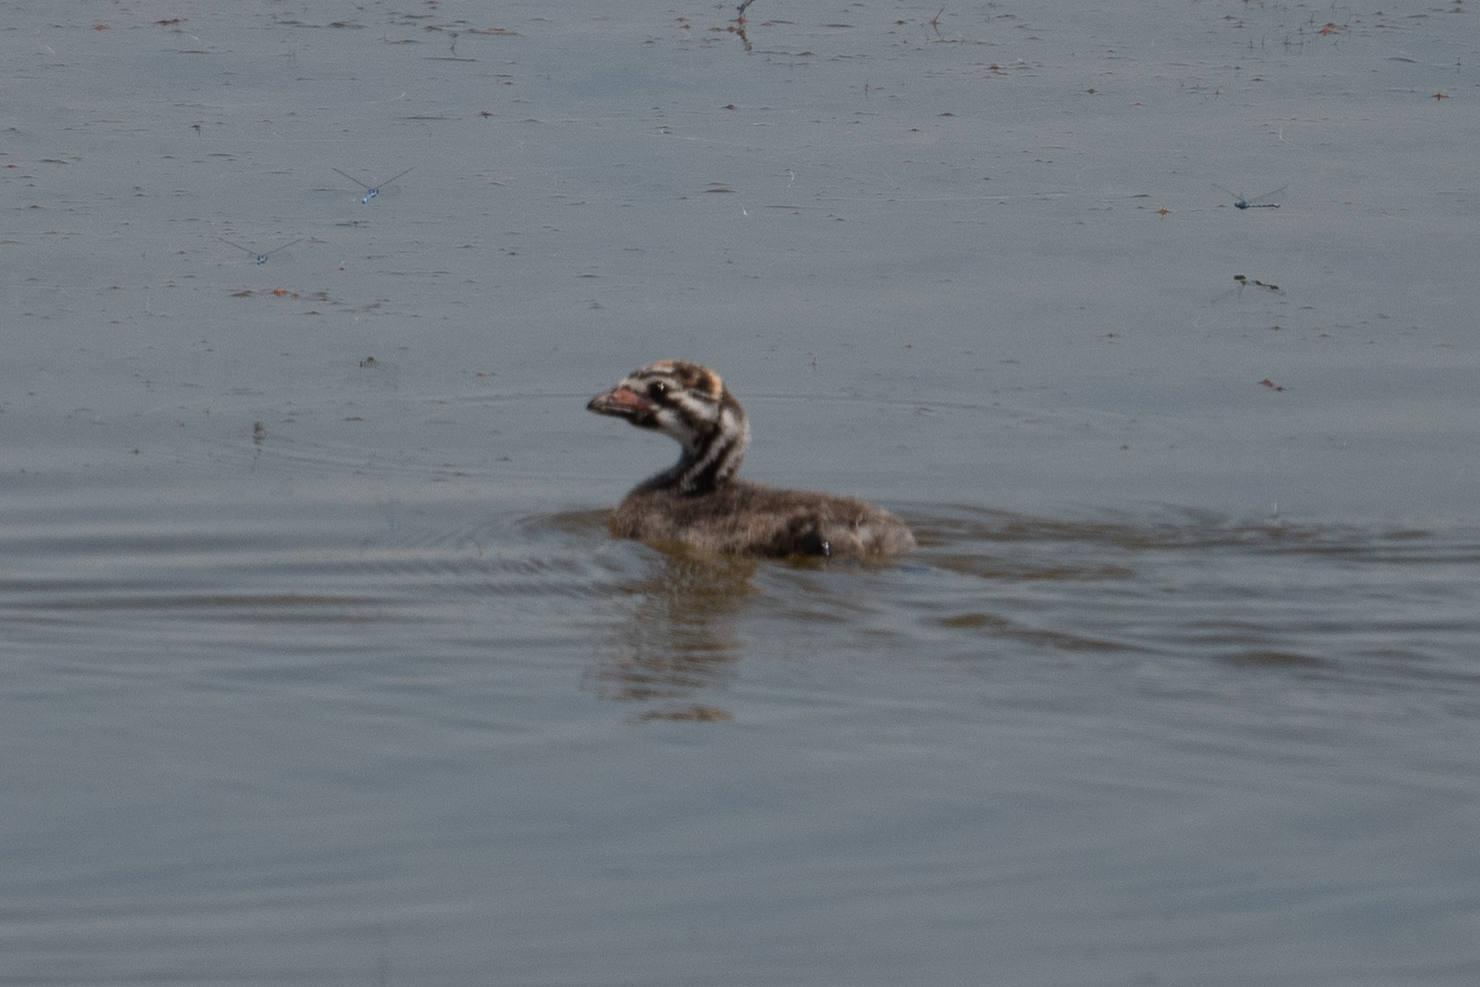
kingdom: Animalia
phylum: Chordata
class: Aves
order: Podicipediformes
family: Podicipedidae
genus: Podilymbus
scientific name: Podilymbus podiceps
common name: Pied-billed grebe
